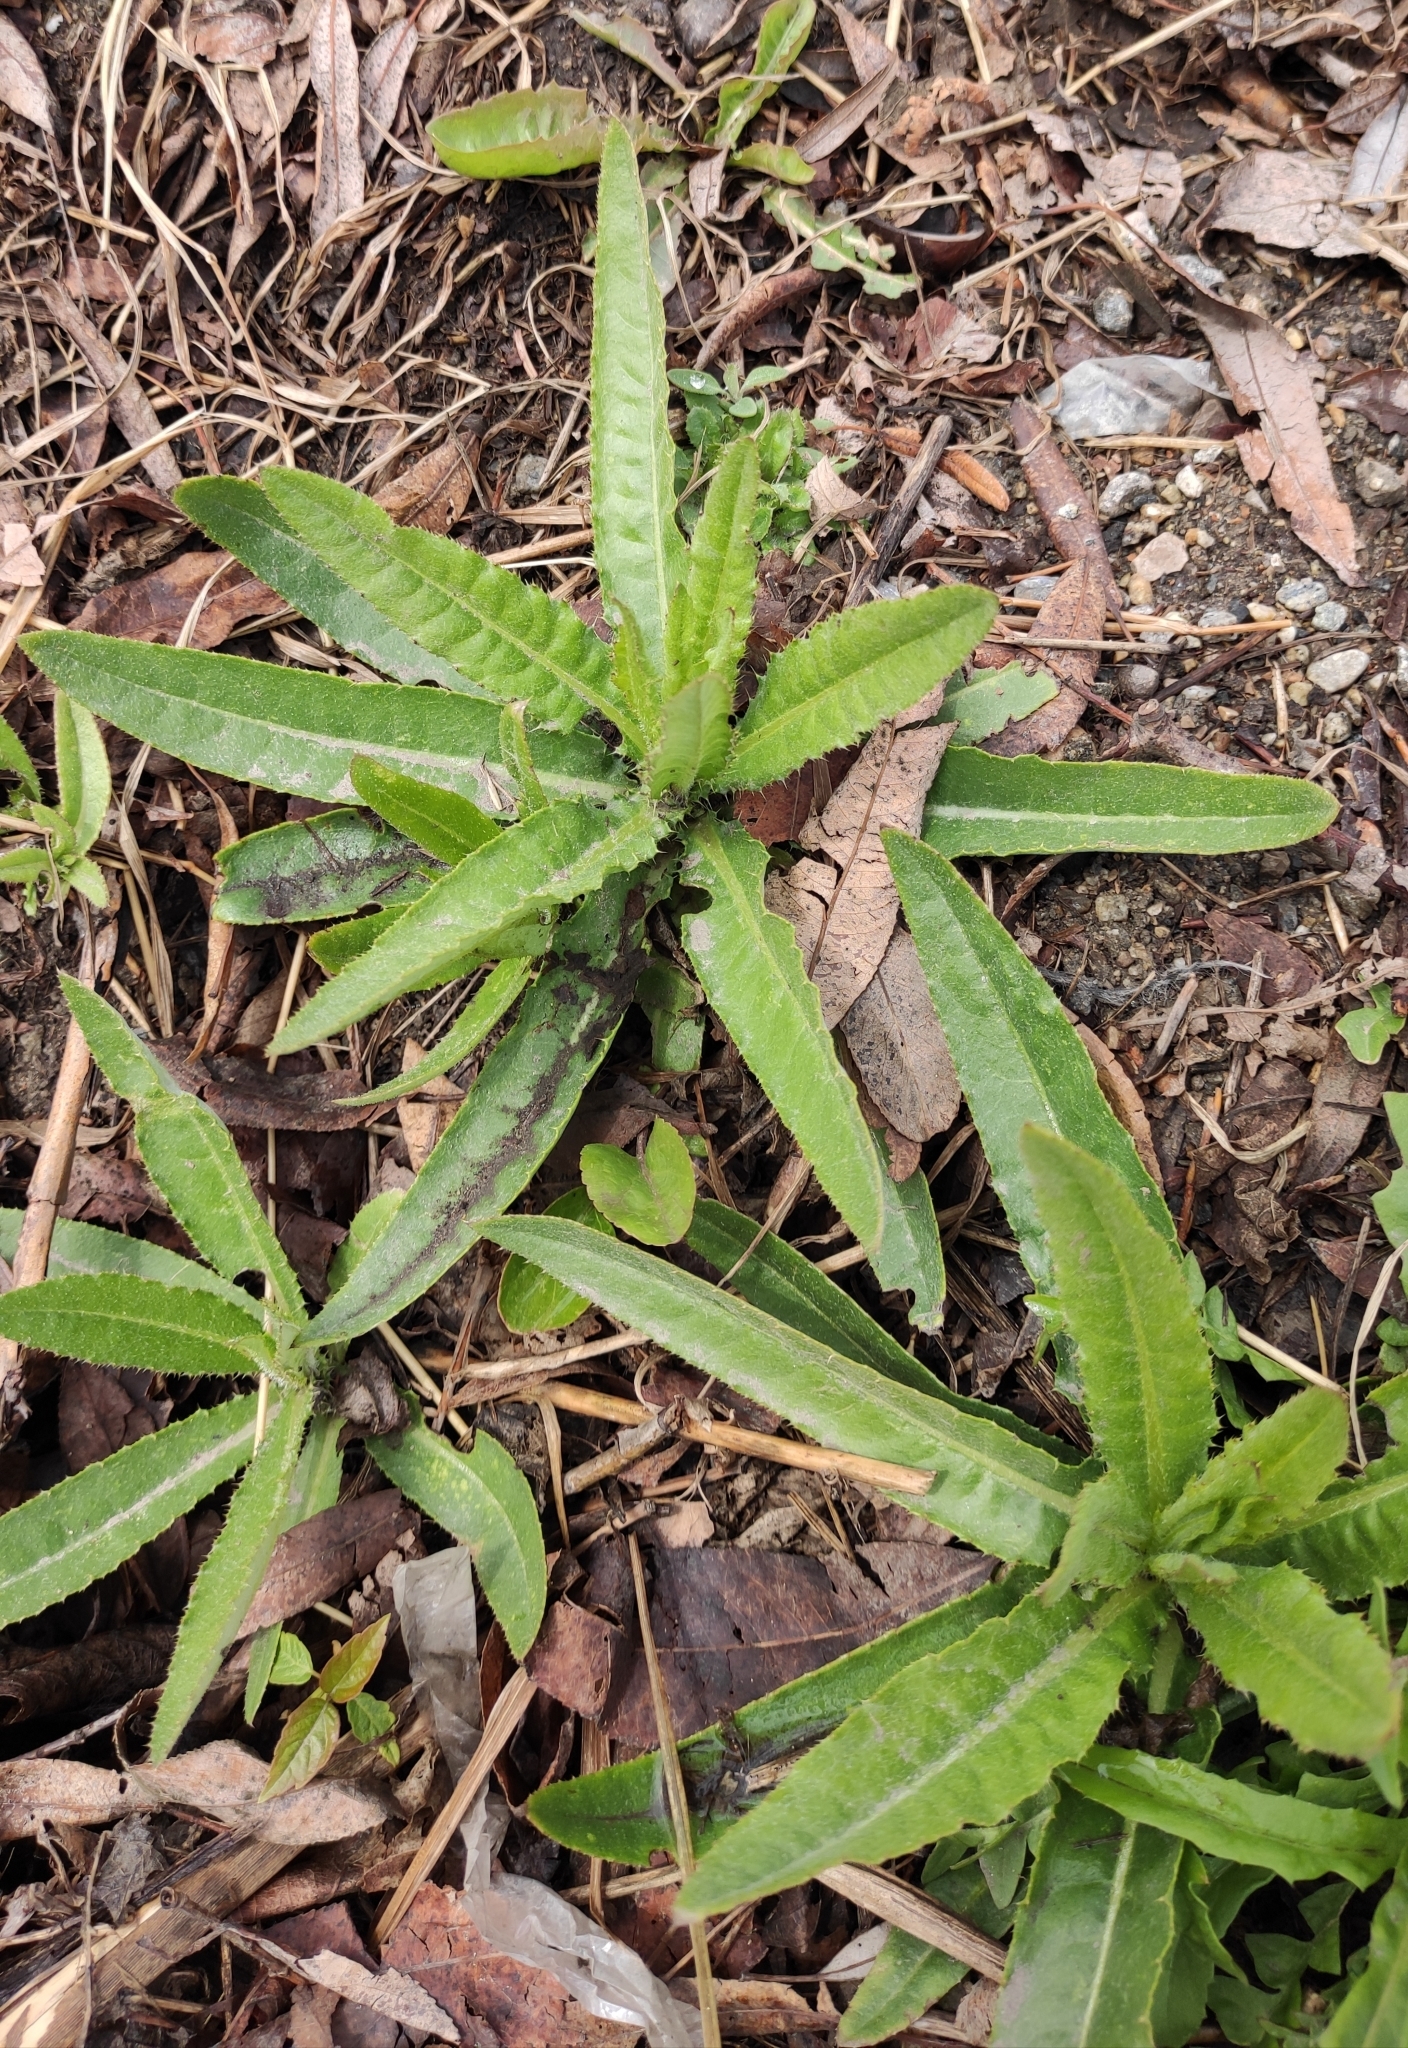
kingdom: Plantae
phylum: Tracheophyta
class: Magnoliopsida
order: Asterales
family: Asteraceae
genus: Cirsium
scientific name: Cirsium arvense
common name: Creeping thistle
